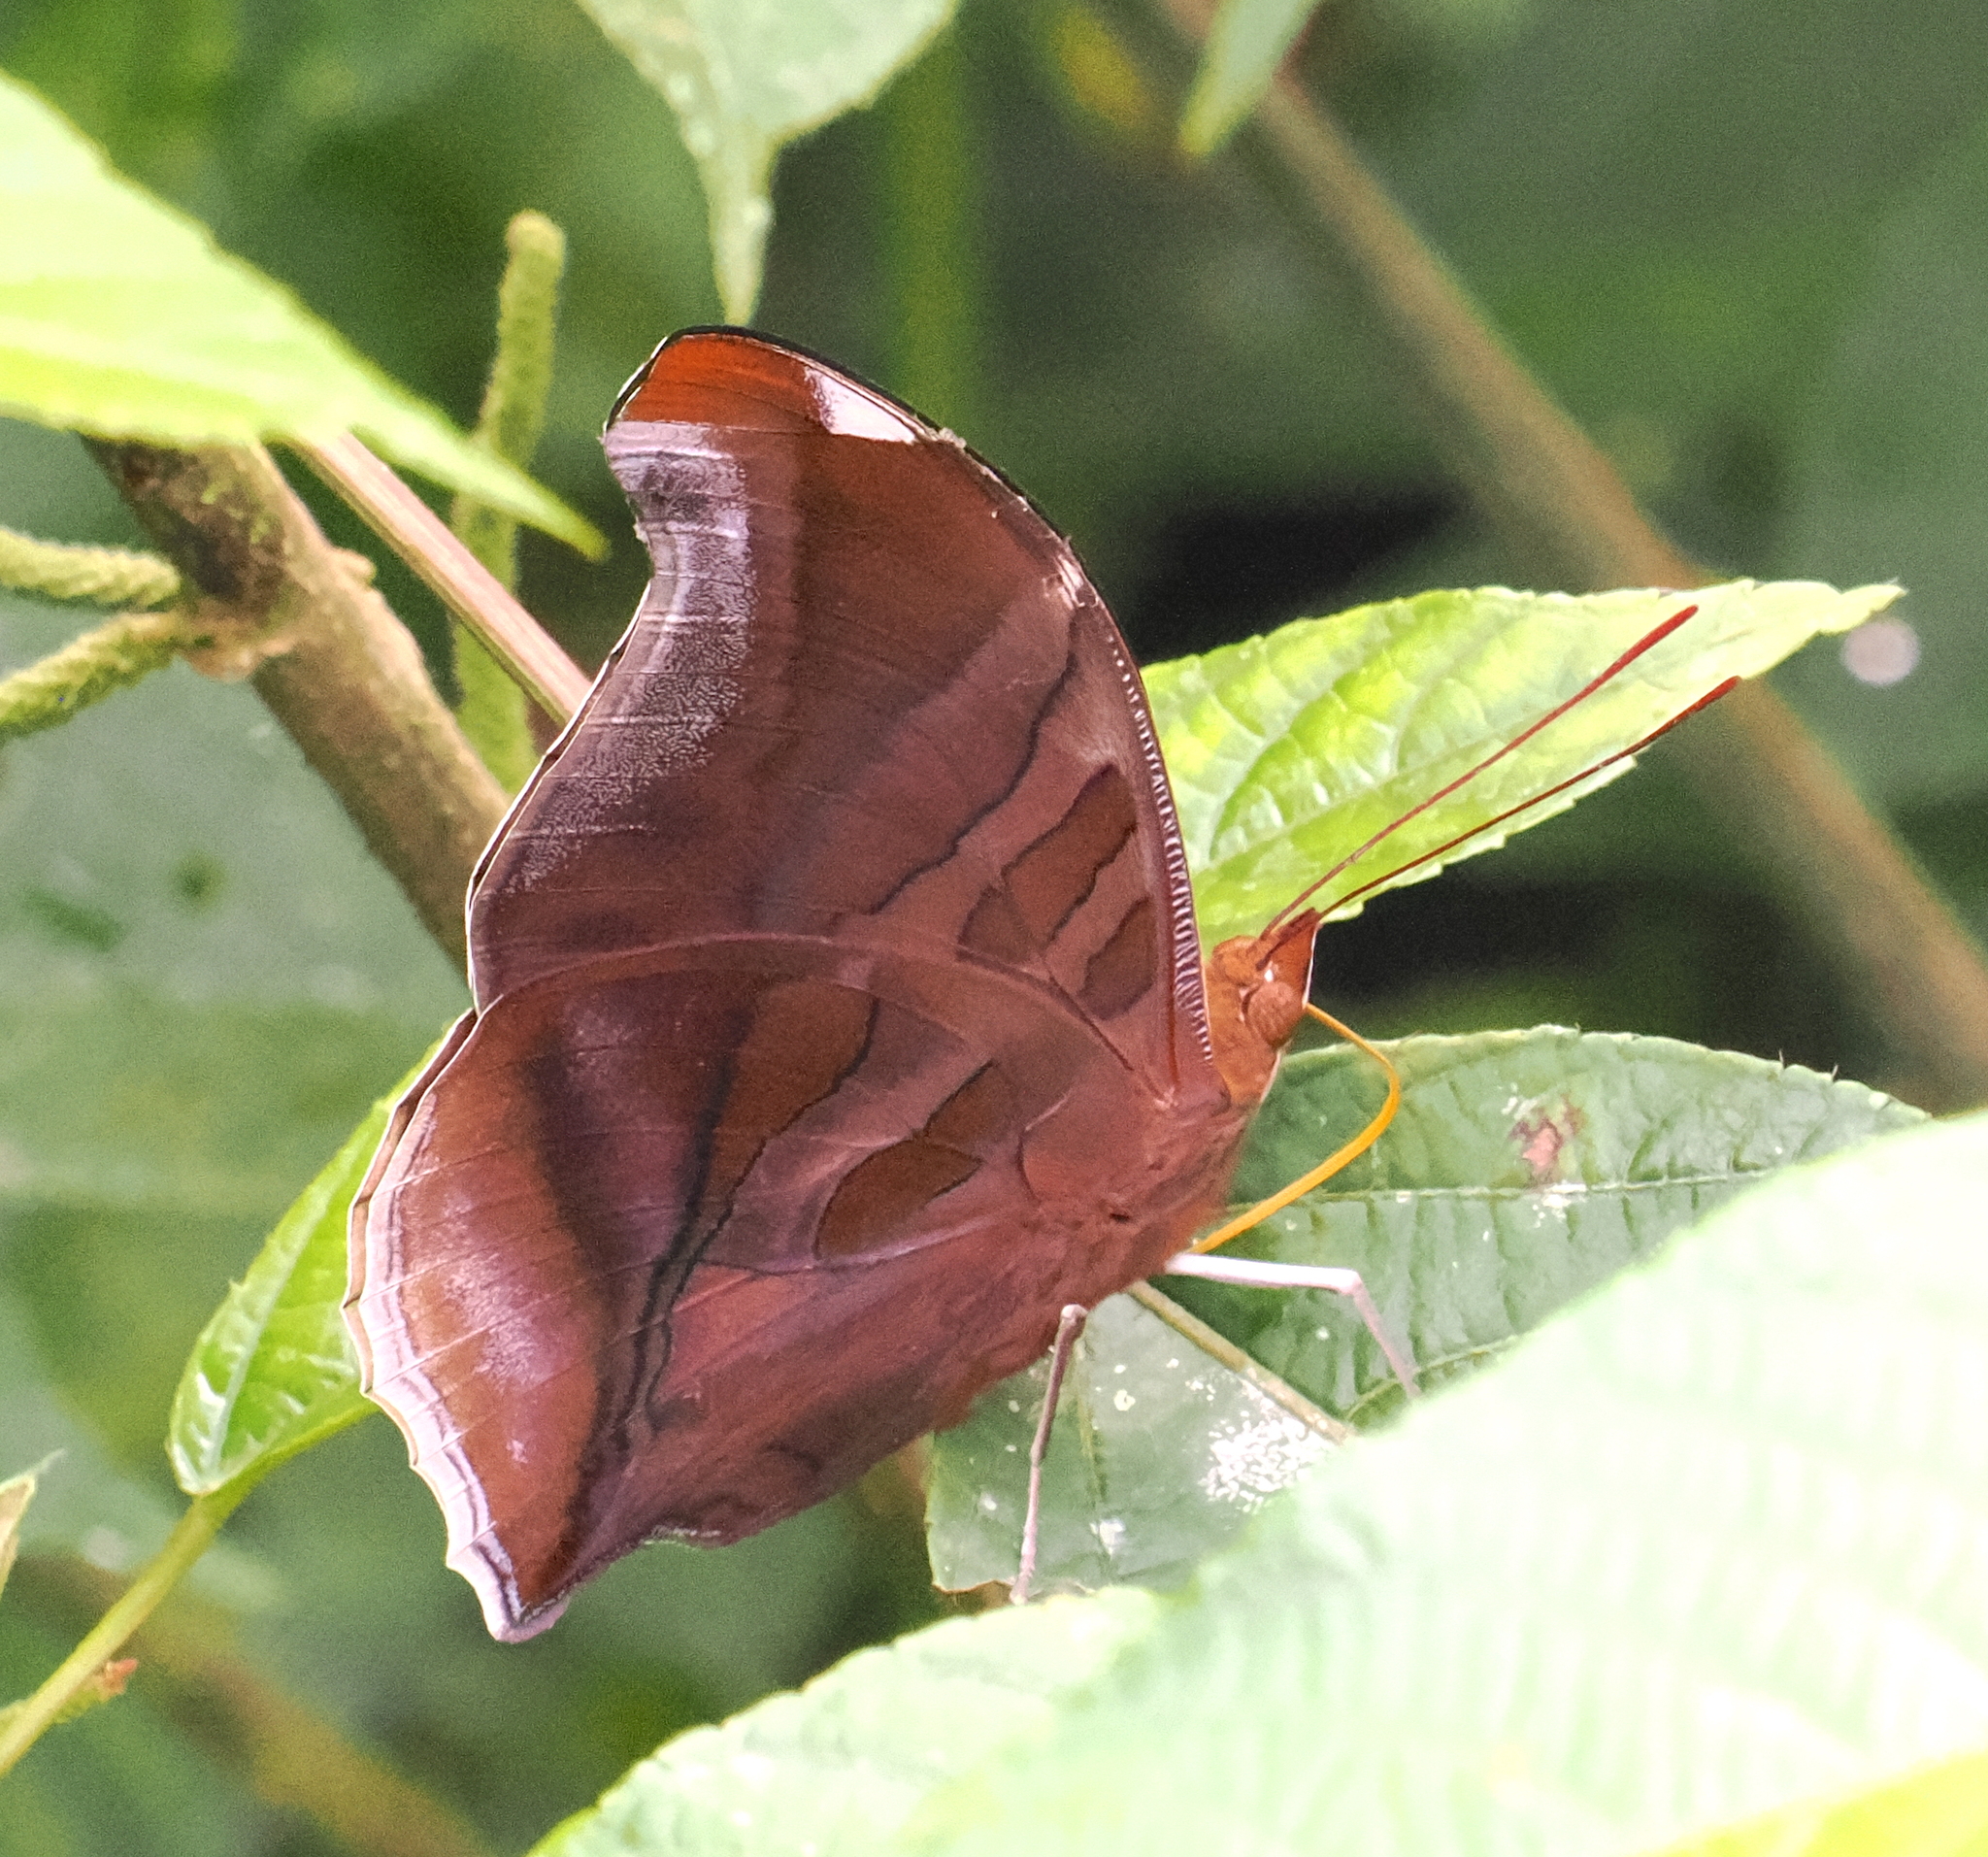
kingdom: Animalia
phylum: Arthropoda
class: Insecta
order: Lepidoptera
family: Nymphalidae
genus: Historis
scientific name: Historis odius
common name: Orion cecropian
